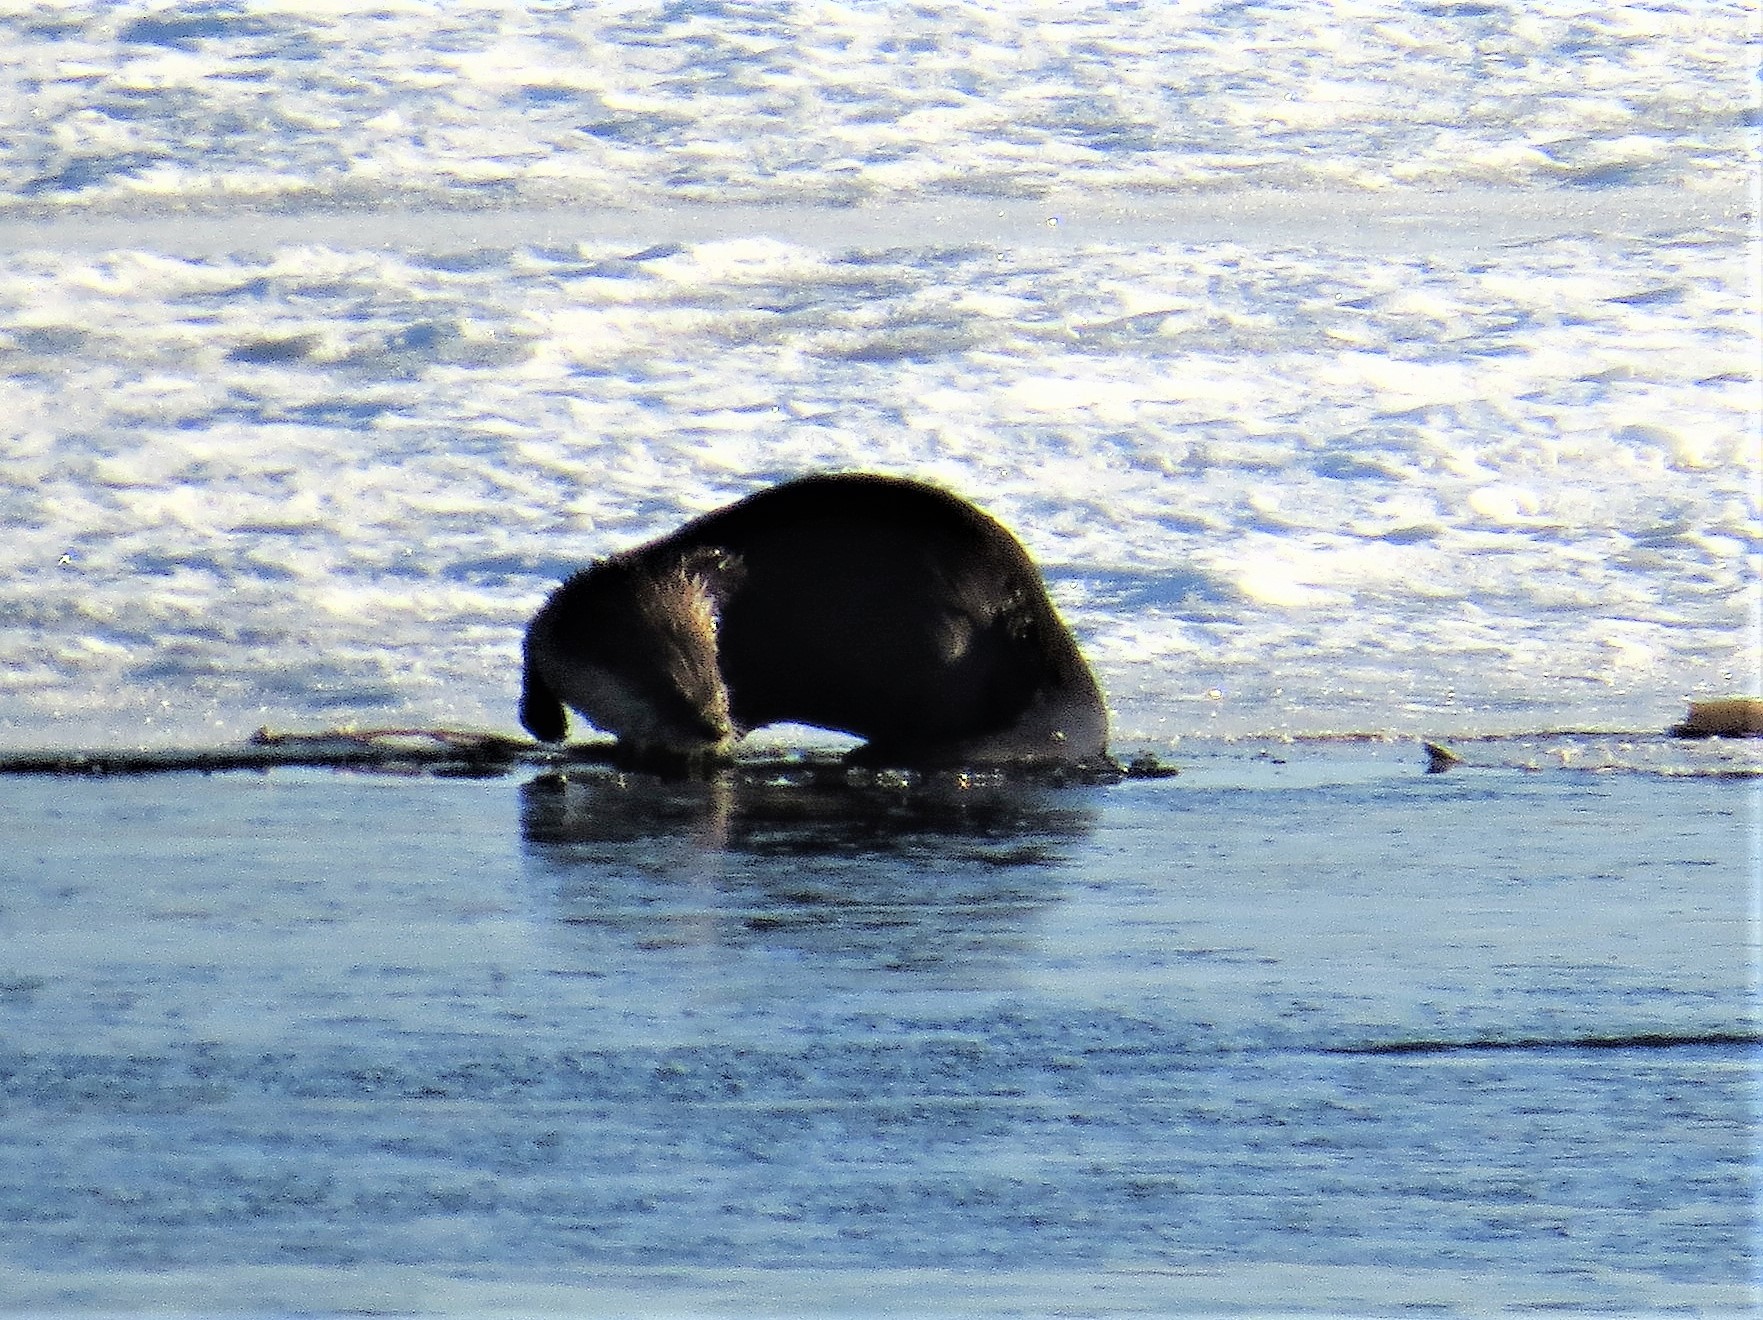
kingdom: Animalia
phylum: Chordata
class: Mammalia
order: Carnivora
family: Mustelidae
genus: Lontra
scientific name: Lontra canadensis
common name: North american river otter
